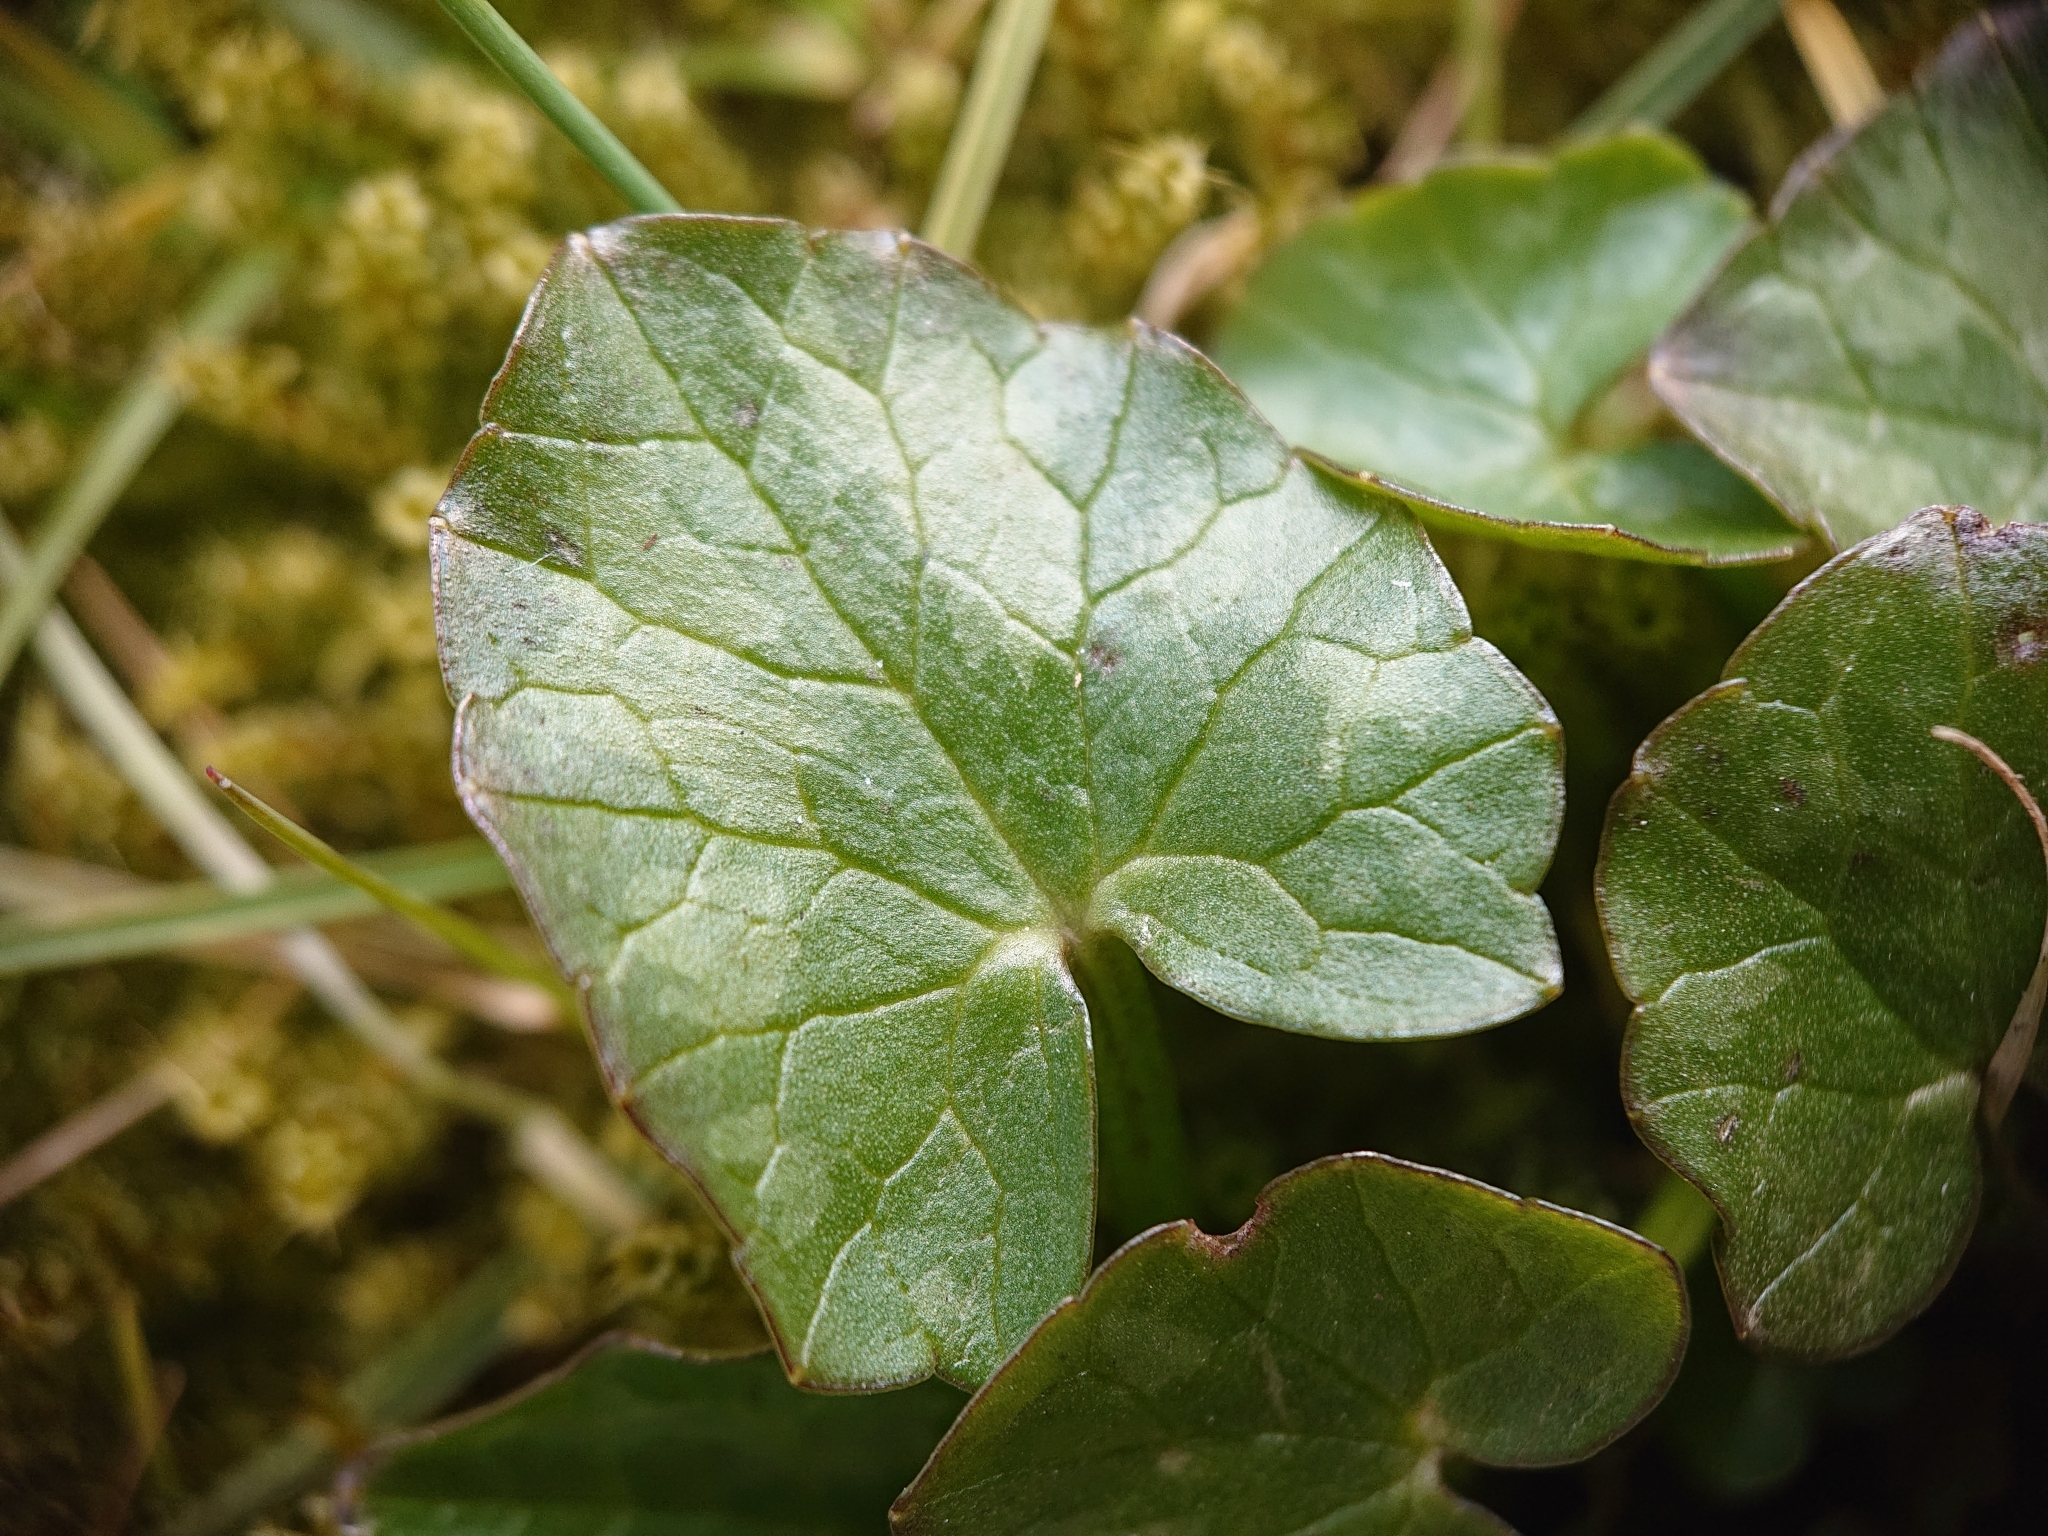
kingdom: Plantae
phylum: Tracheophyta
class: Magnoliopsida
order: Ranunculales
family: Ranunculaceae
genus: Ficaria
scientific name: Ficaria verna
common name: Lesser celandine
